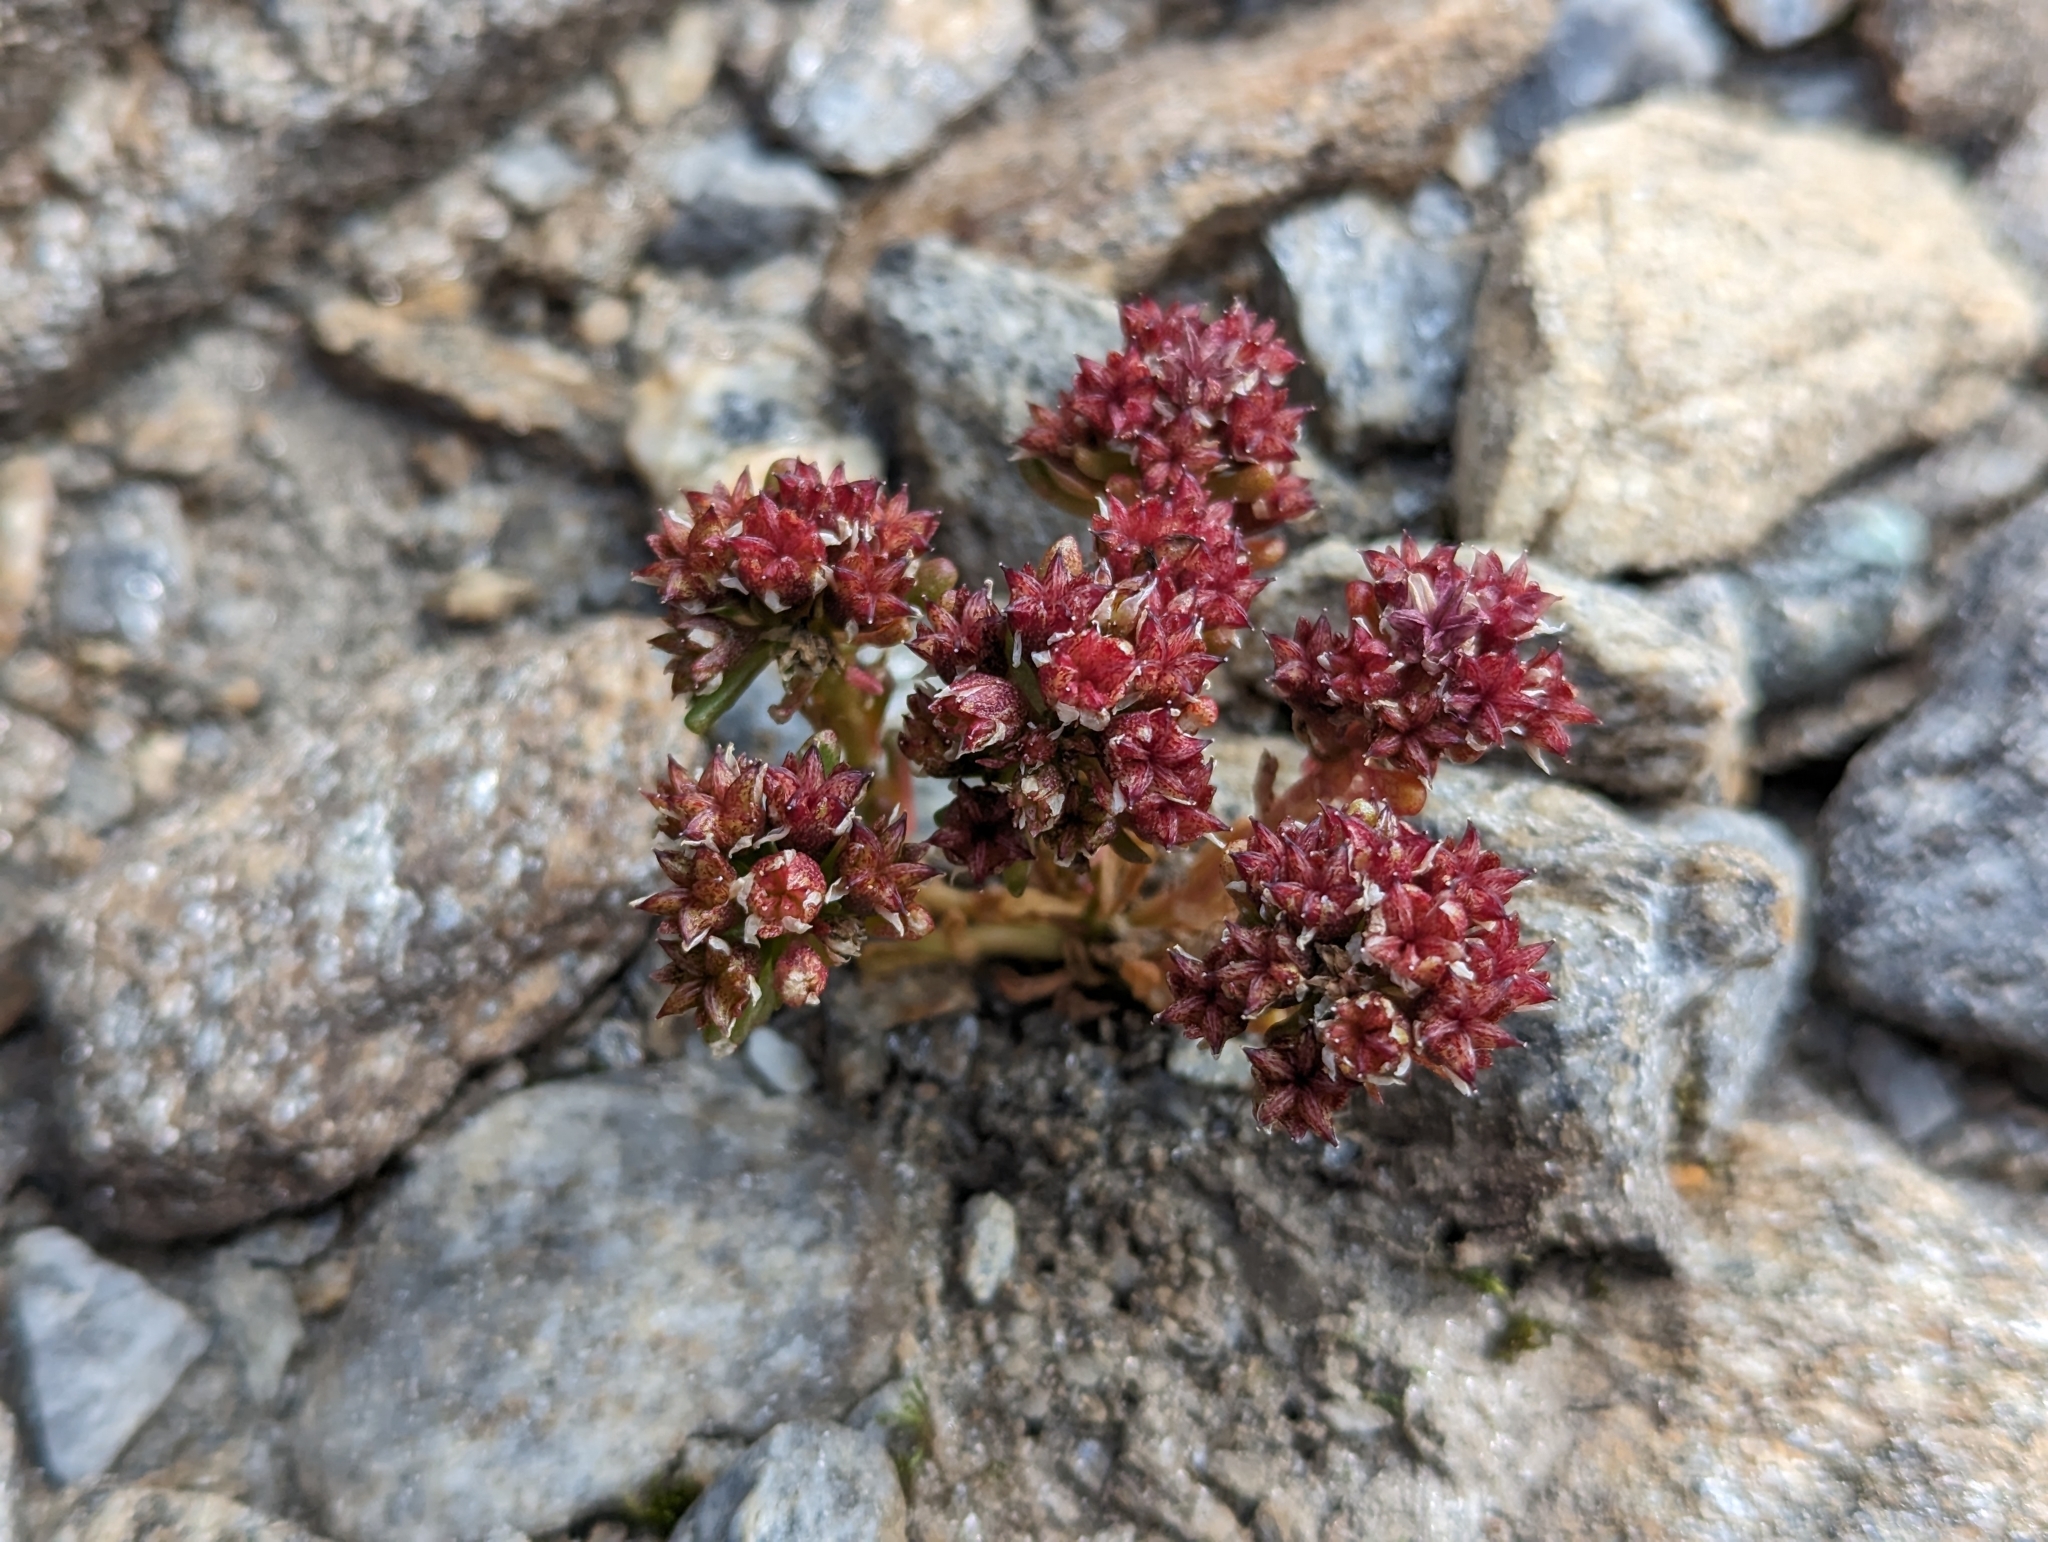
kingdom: Plantae
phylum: Tracheophyta
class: Magnoliopsida
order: Saxifragales
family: Crassulaceae
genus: Sedum
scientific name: Sedum atratum
